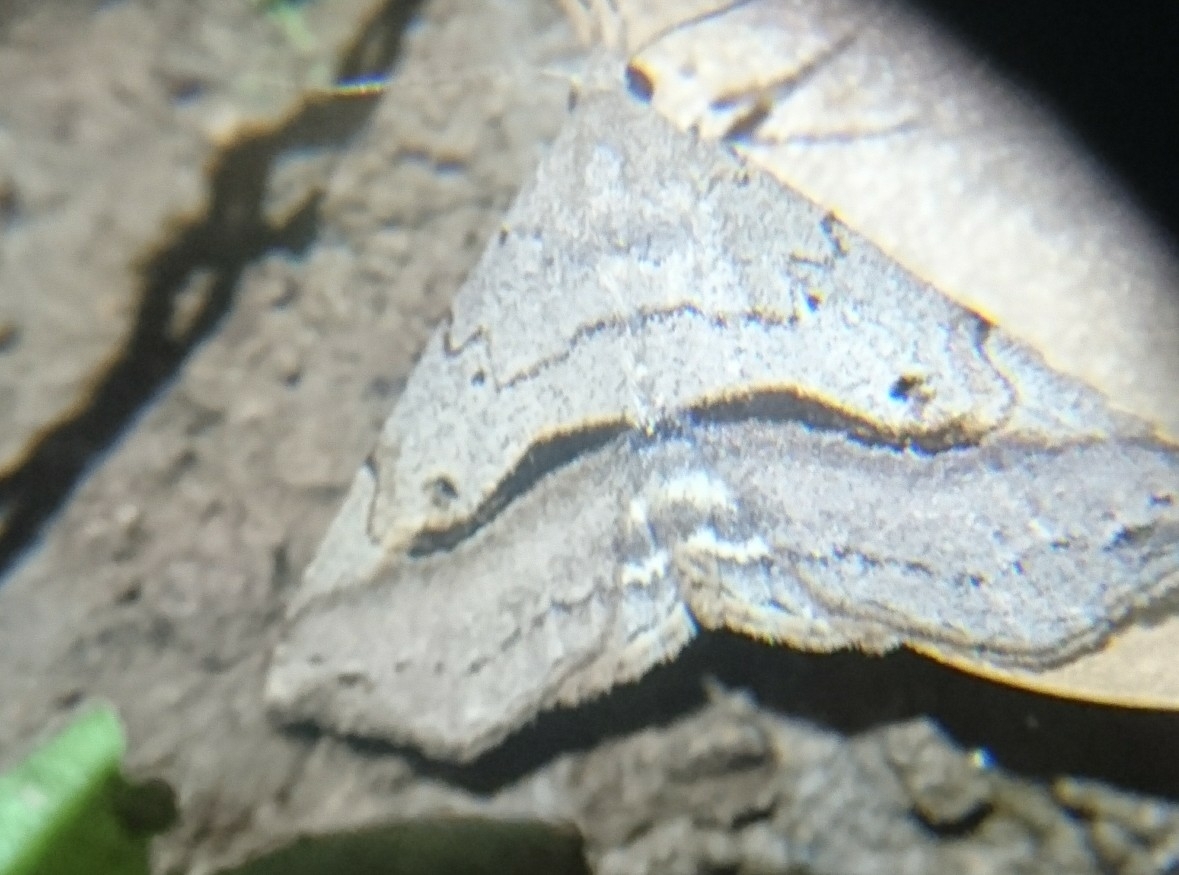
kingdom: Animalia
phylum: Arthropoda
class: Insecta
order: Lepidoptera
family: Erebidae
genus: Spargaloma
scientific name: Spargaloma perditalis
